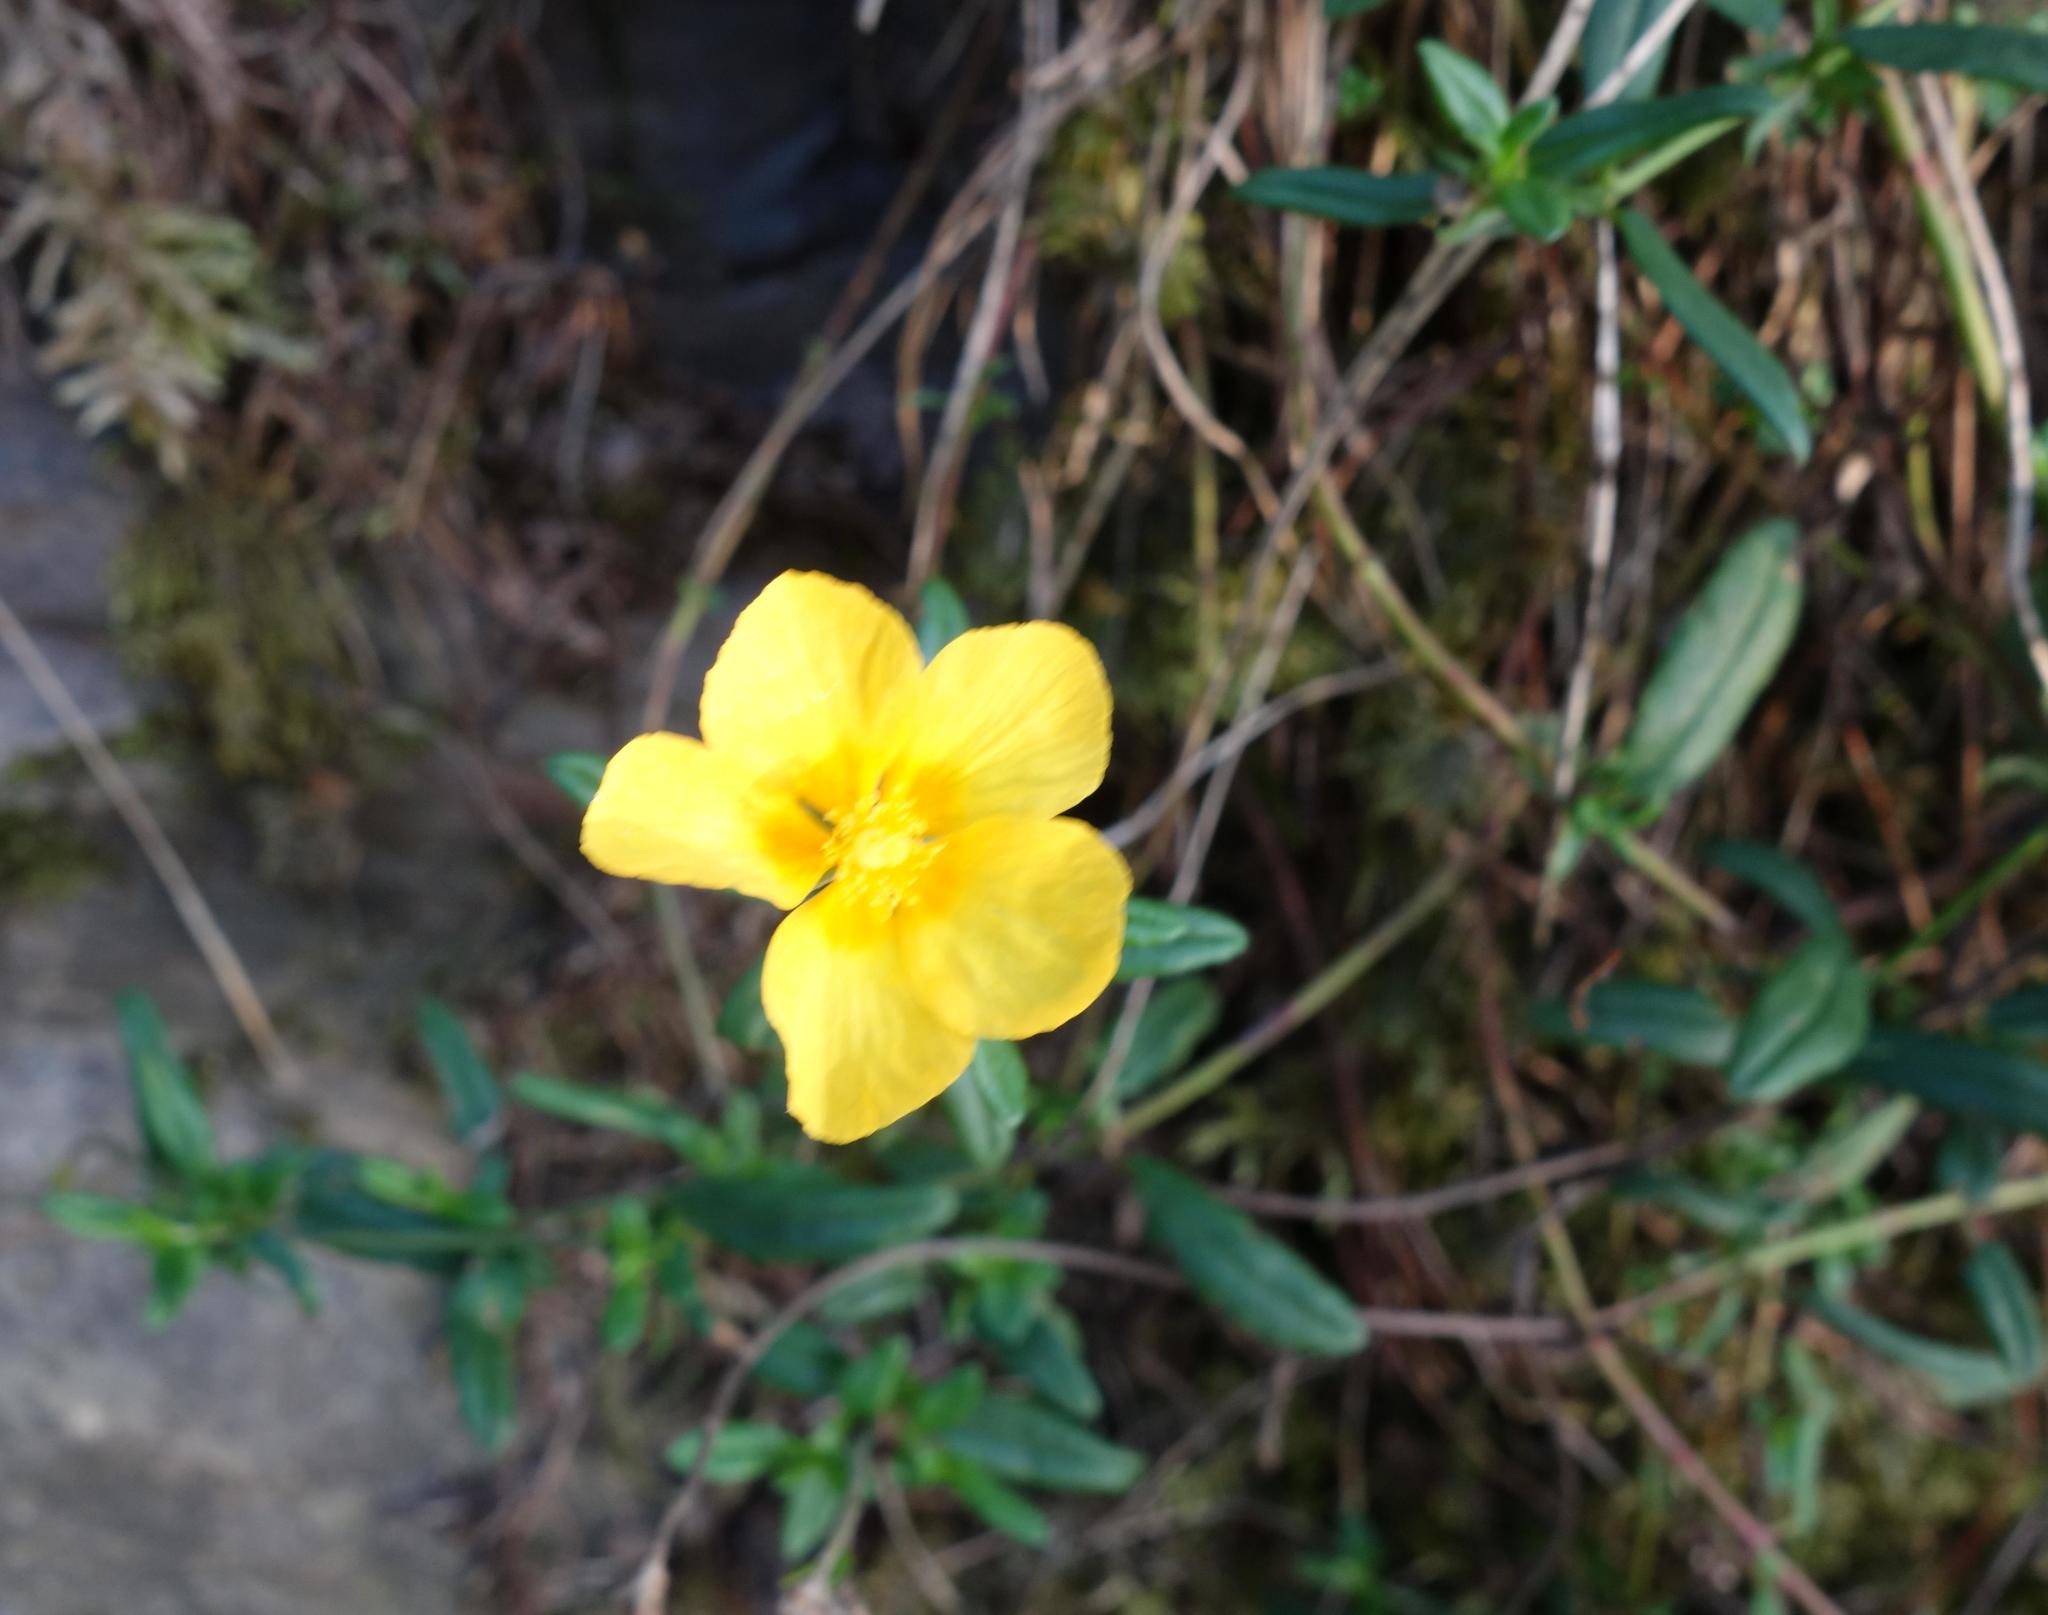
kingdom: Plantae
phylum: Tracheophyta
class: Magnoliopsida
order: Malvales
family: Cistaceae
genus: Helianthemum
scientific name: Helianthemum nummularium
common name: Common rock-rose
